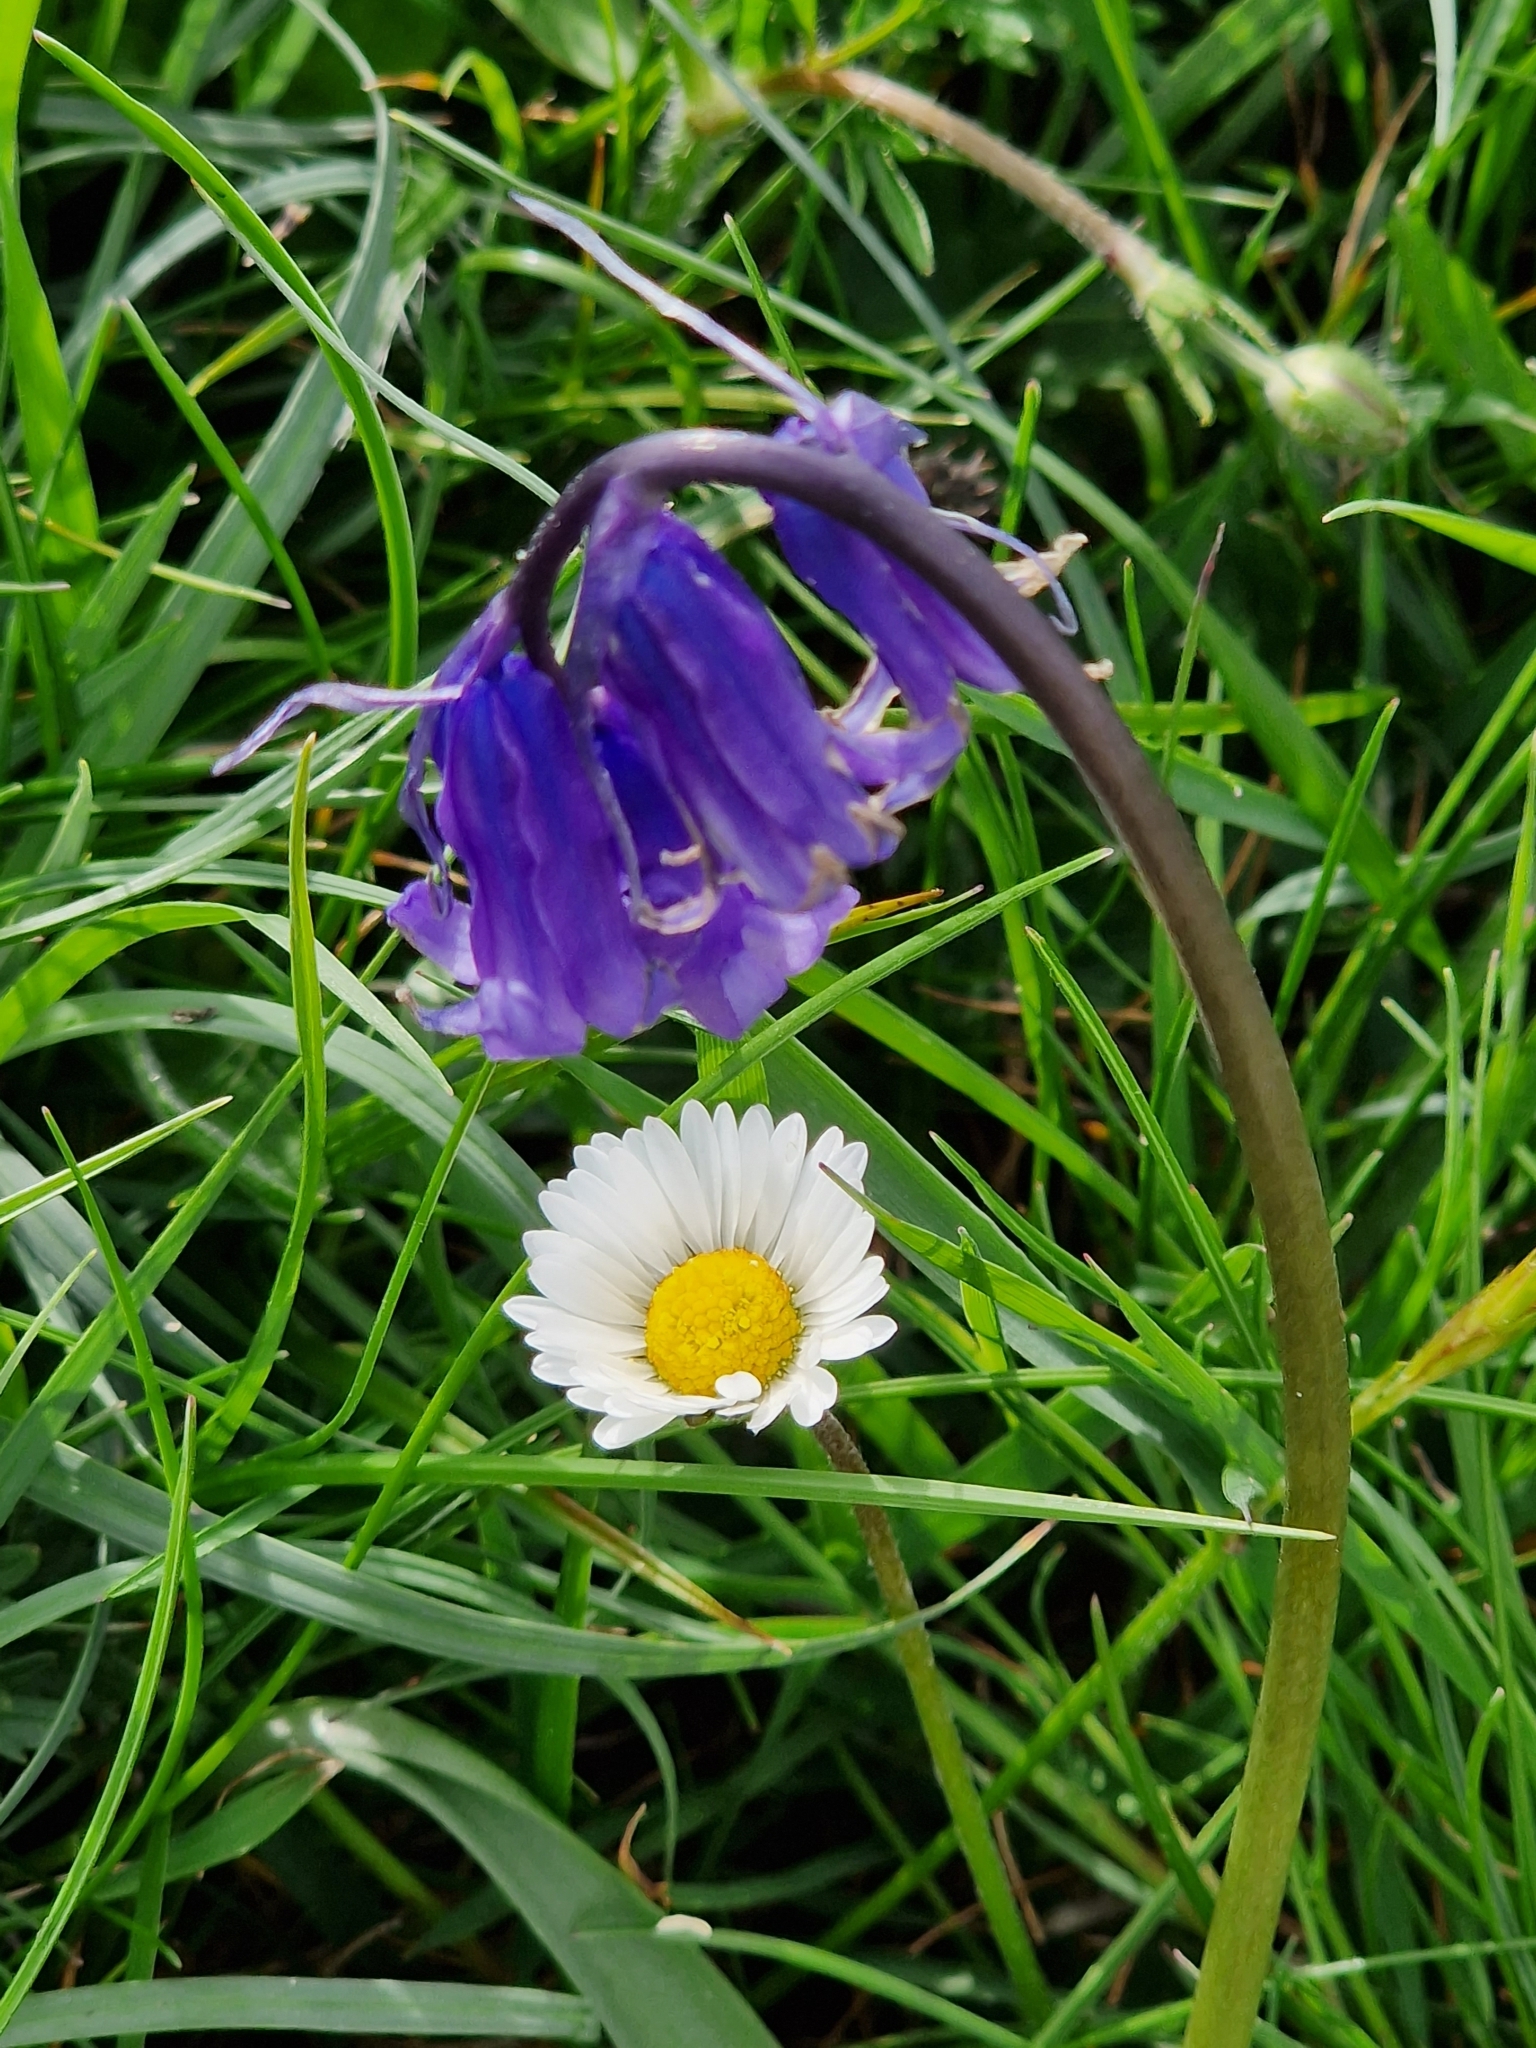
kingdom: Plantae
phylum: Tracheophyta
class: Liliopsida
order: Asparagales
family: Asparagaceae
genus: Hyacinthoides
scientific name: Hyacinthoides non-scripta
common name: Bluebell
